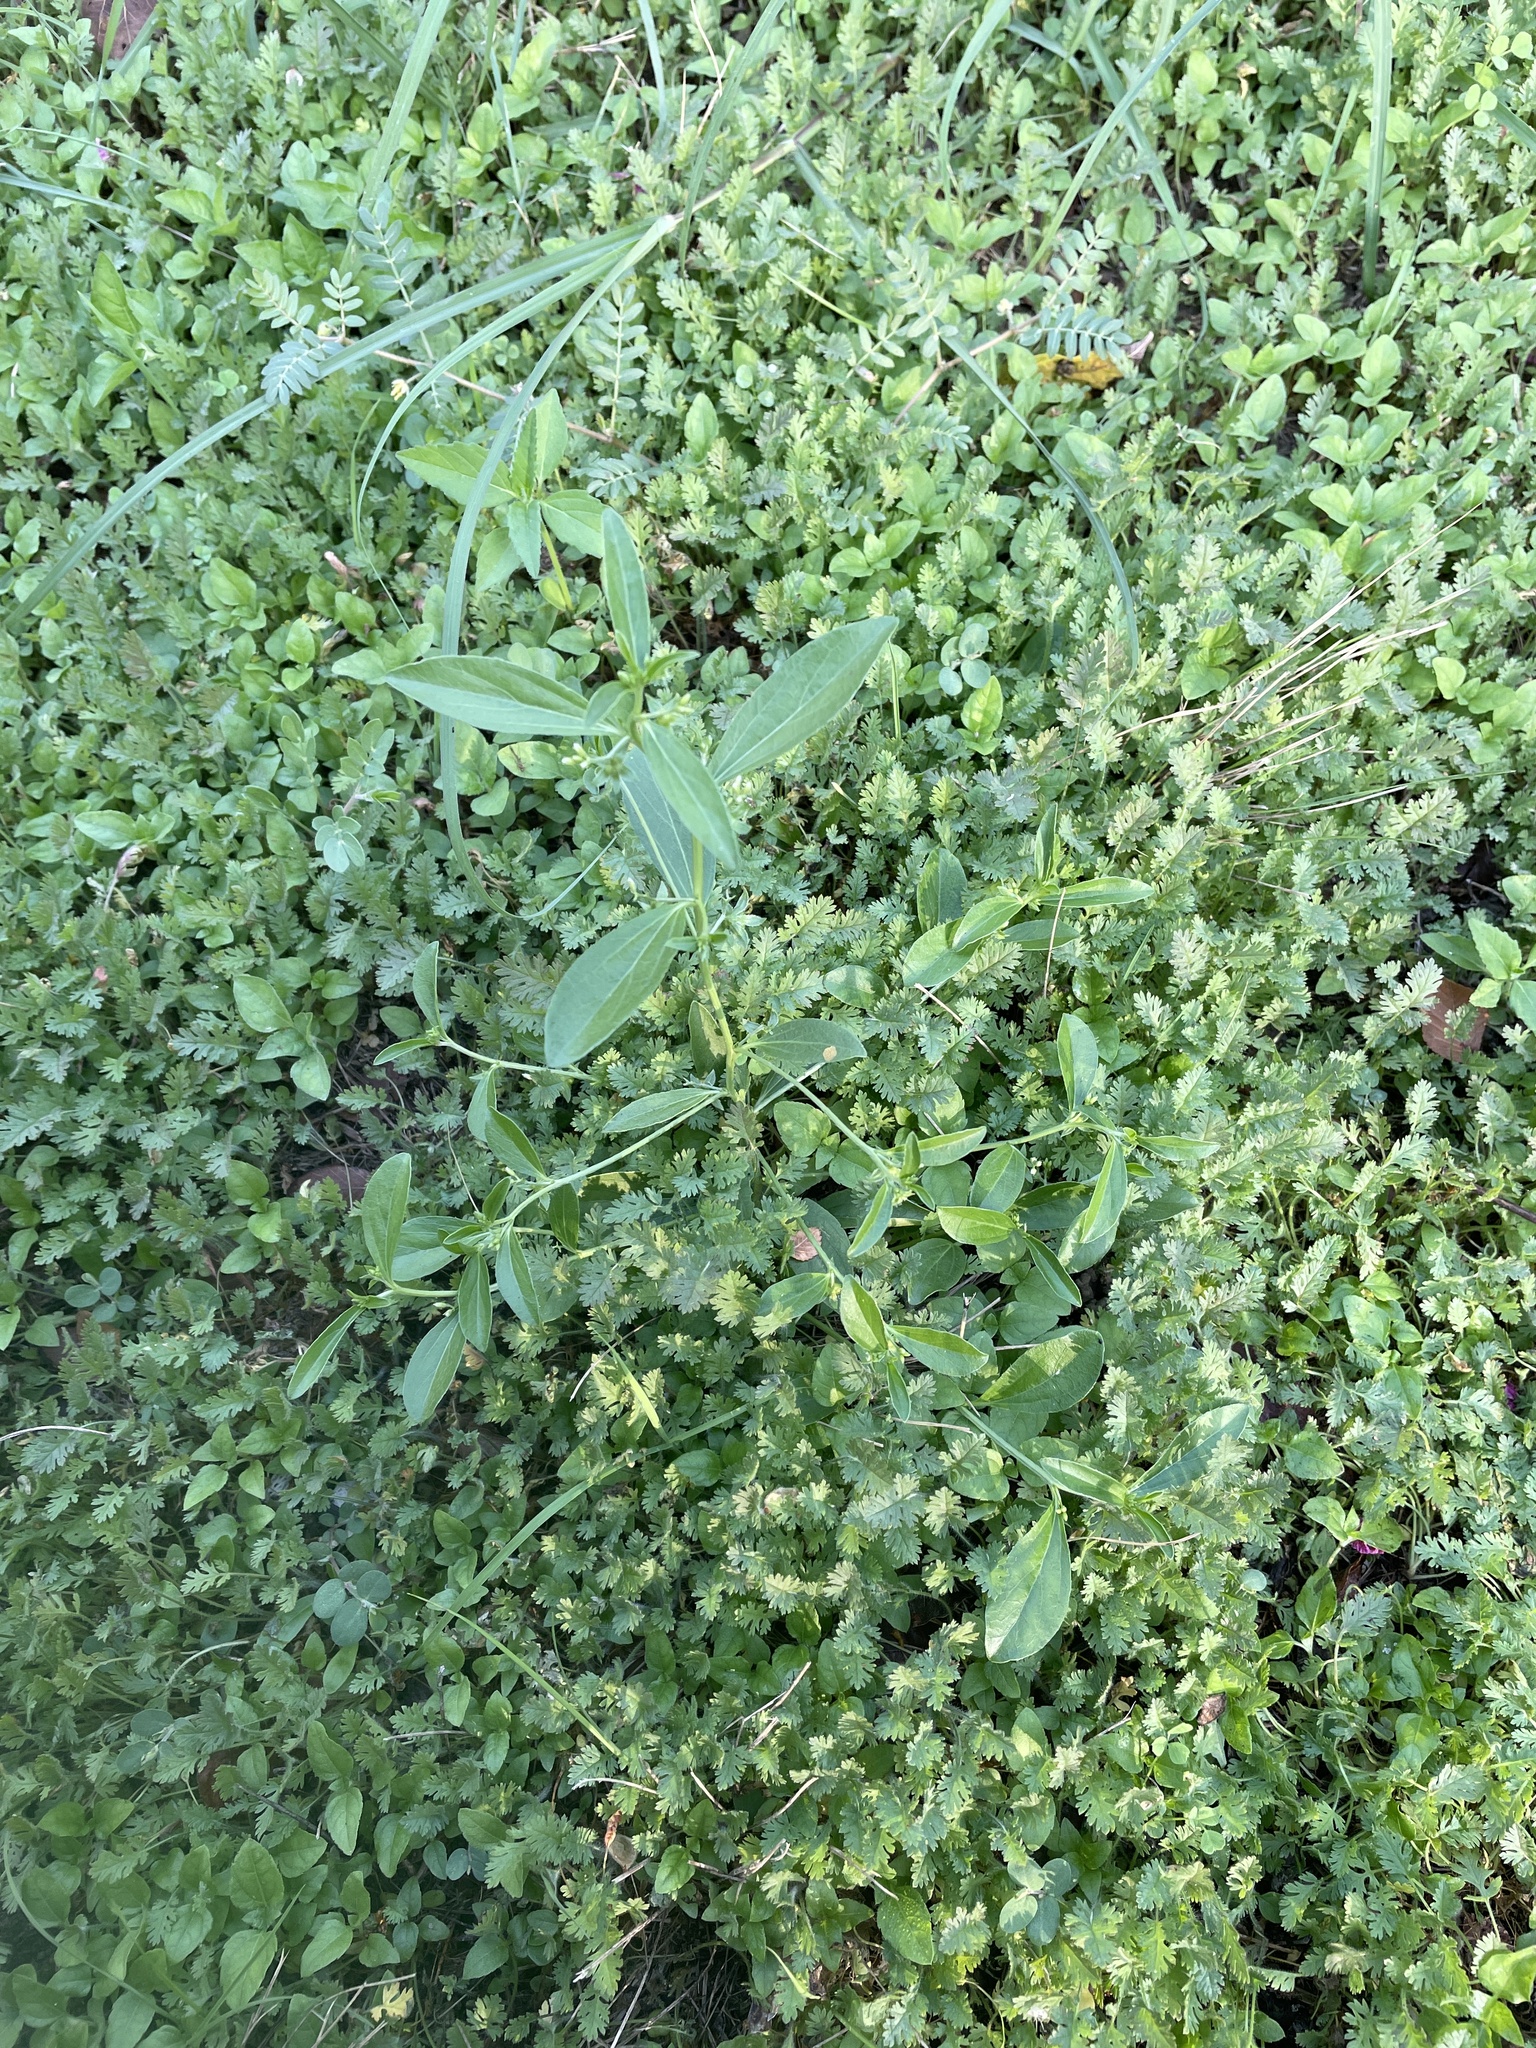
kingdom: Plantae
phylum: Tracheophyta
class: Magnoliopsida
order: Malpighiales
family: Euphorbiaceae
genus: Ditaxis
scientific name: Ditaxis humilis
